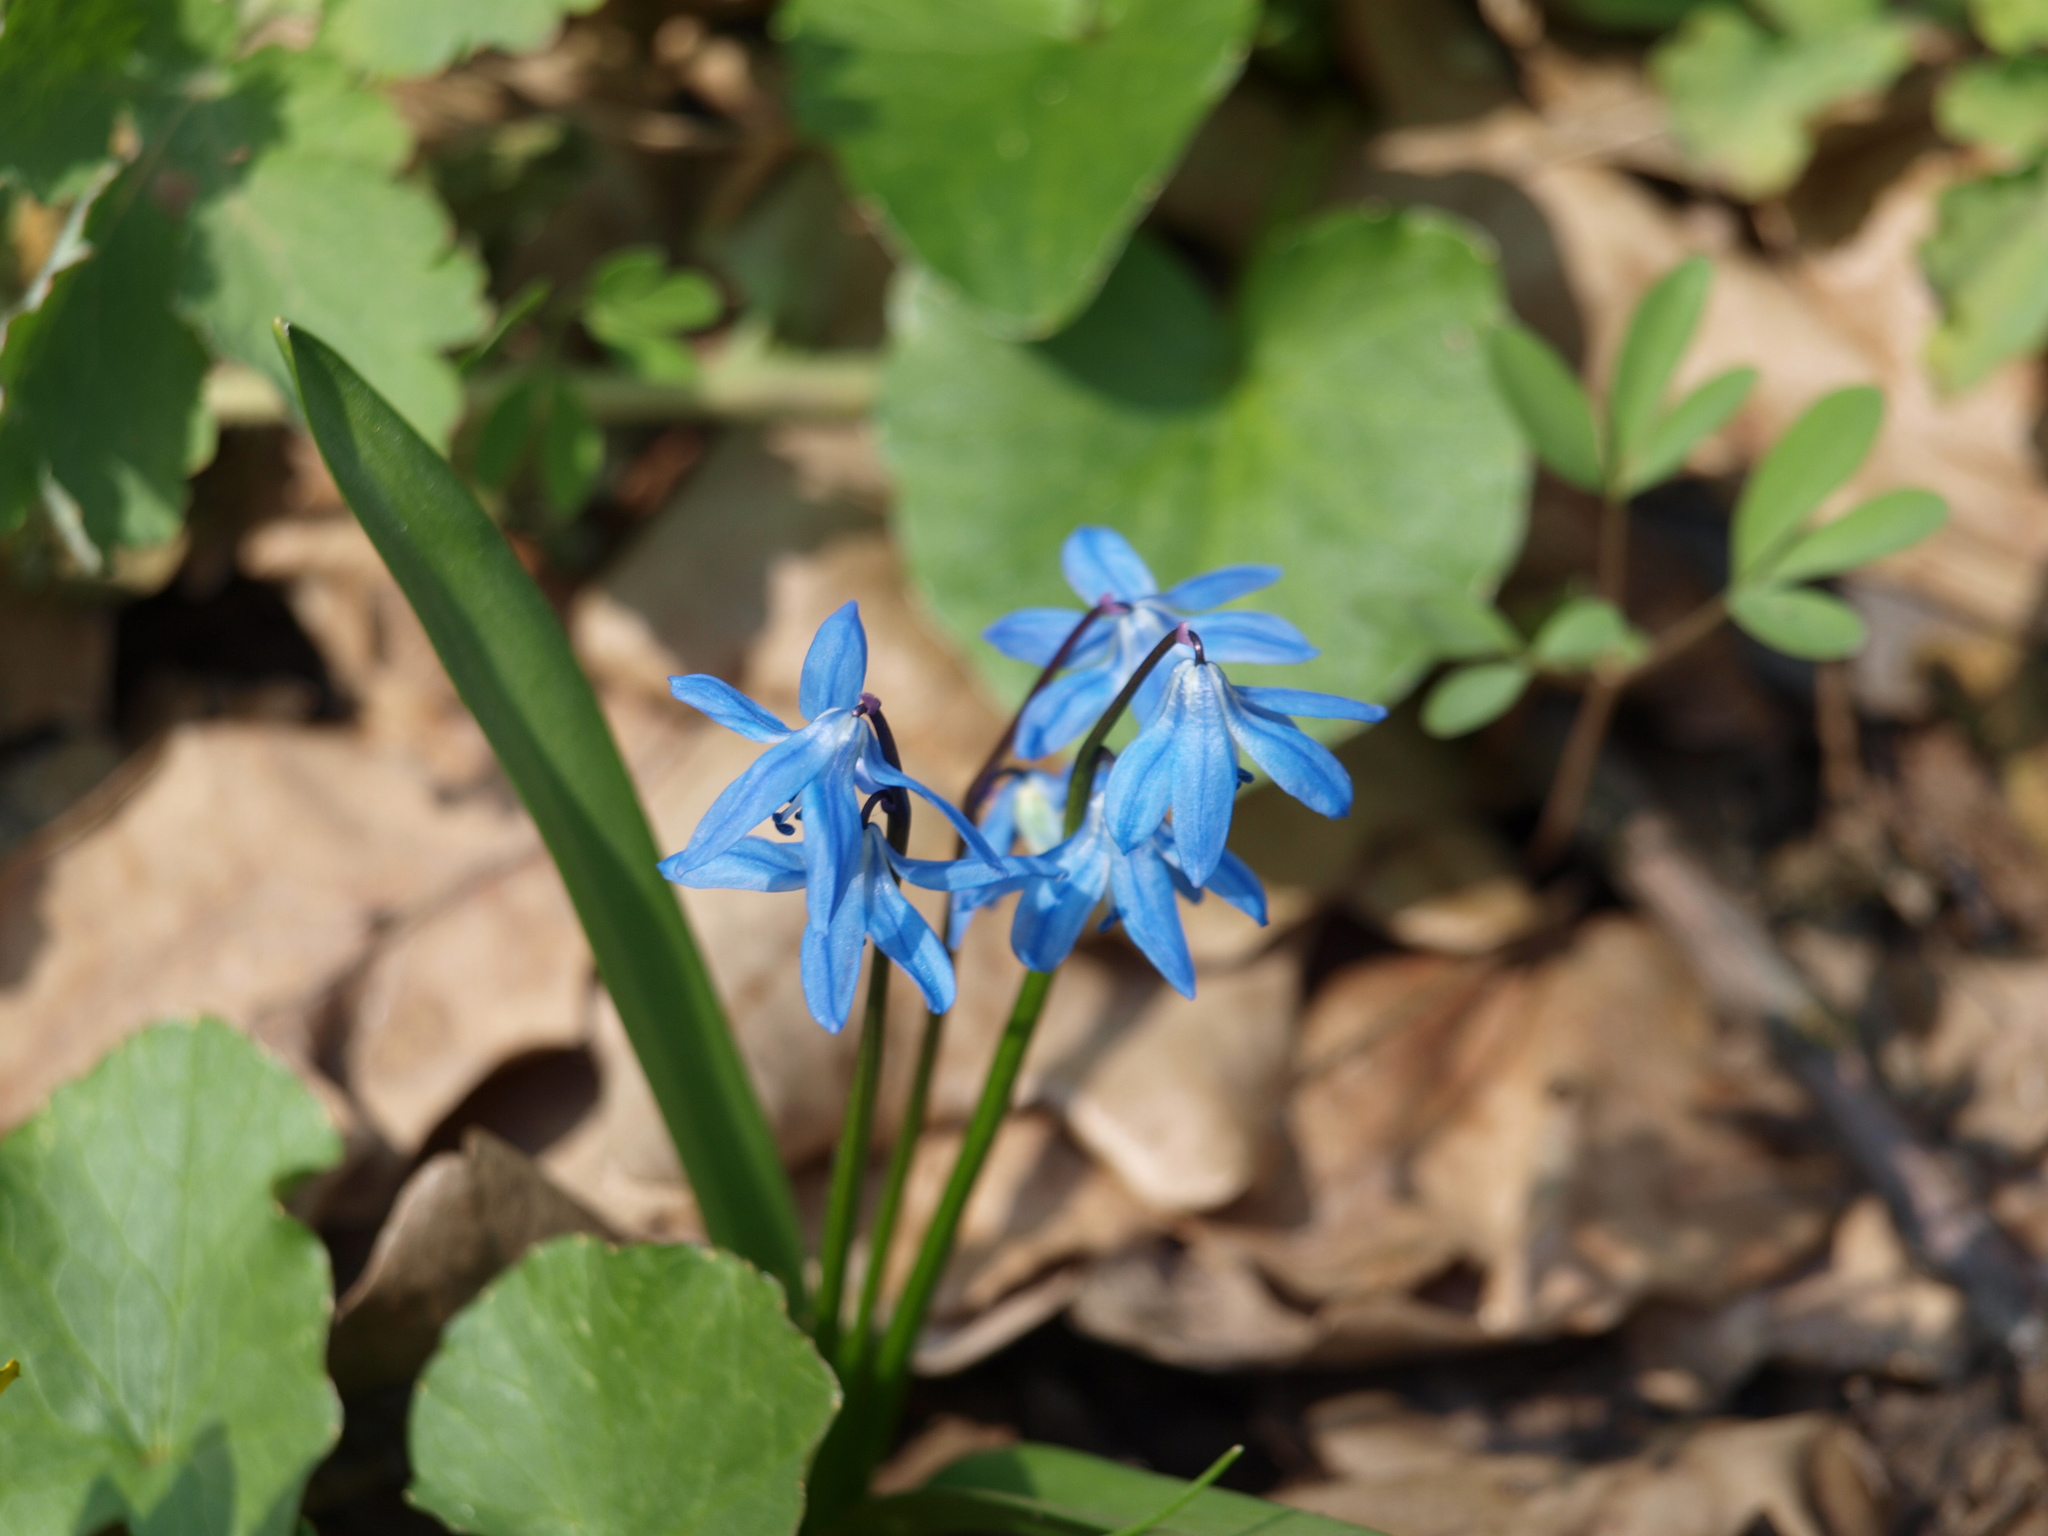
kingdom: Plantae
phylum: Tracheophyta
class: Liliopsida
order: Asparagales
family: Asparagaceae
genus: Scilla
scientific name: Scilla siberica
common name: Siberian squill
